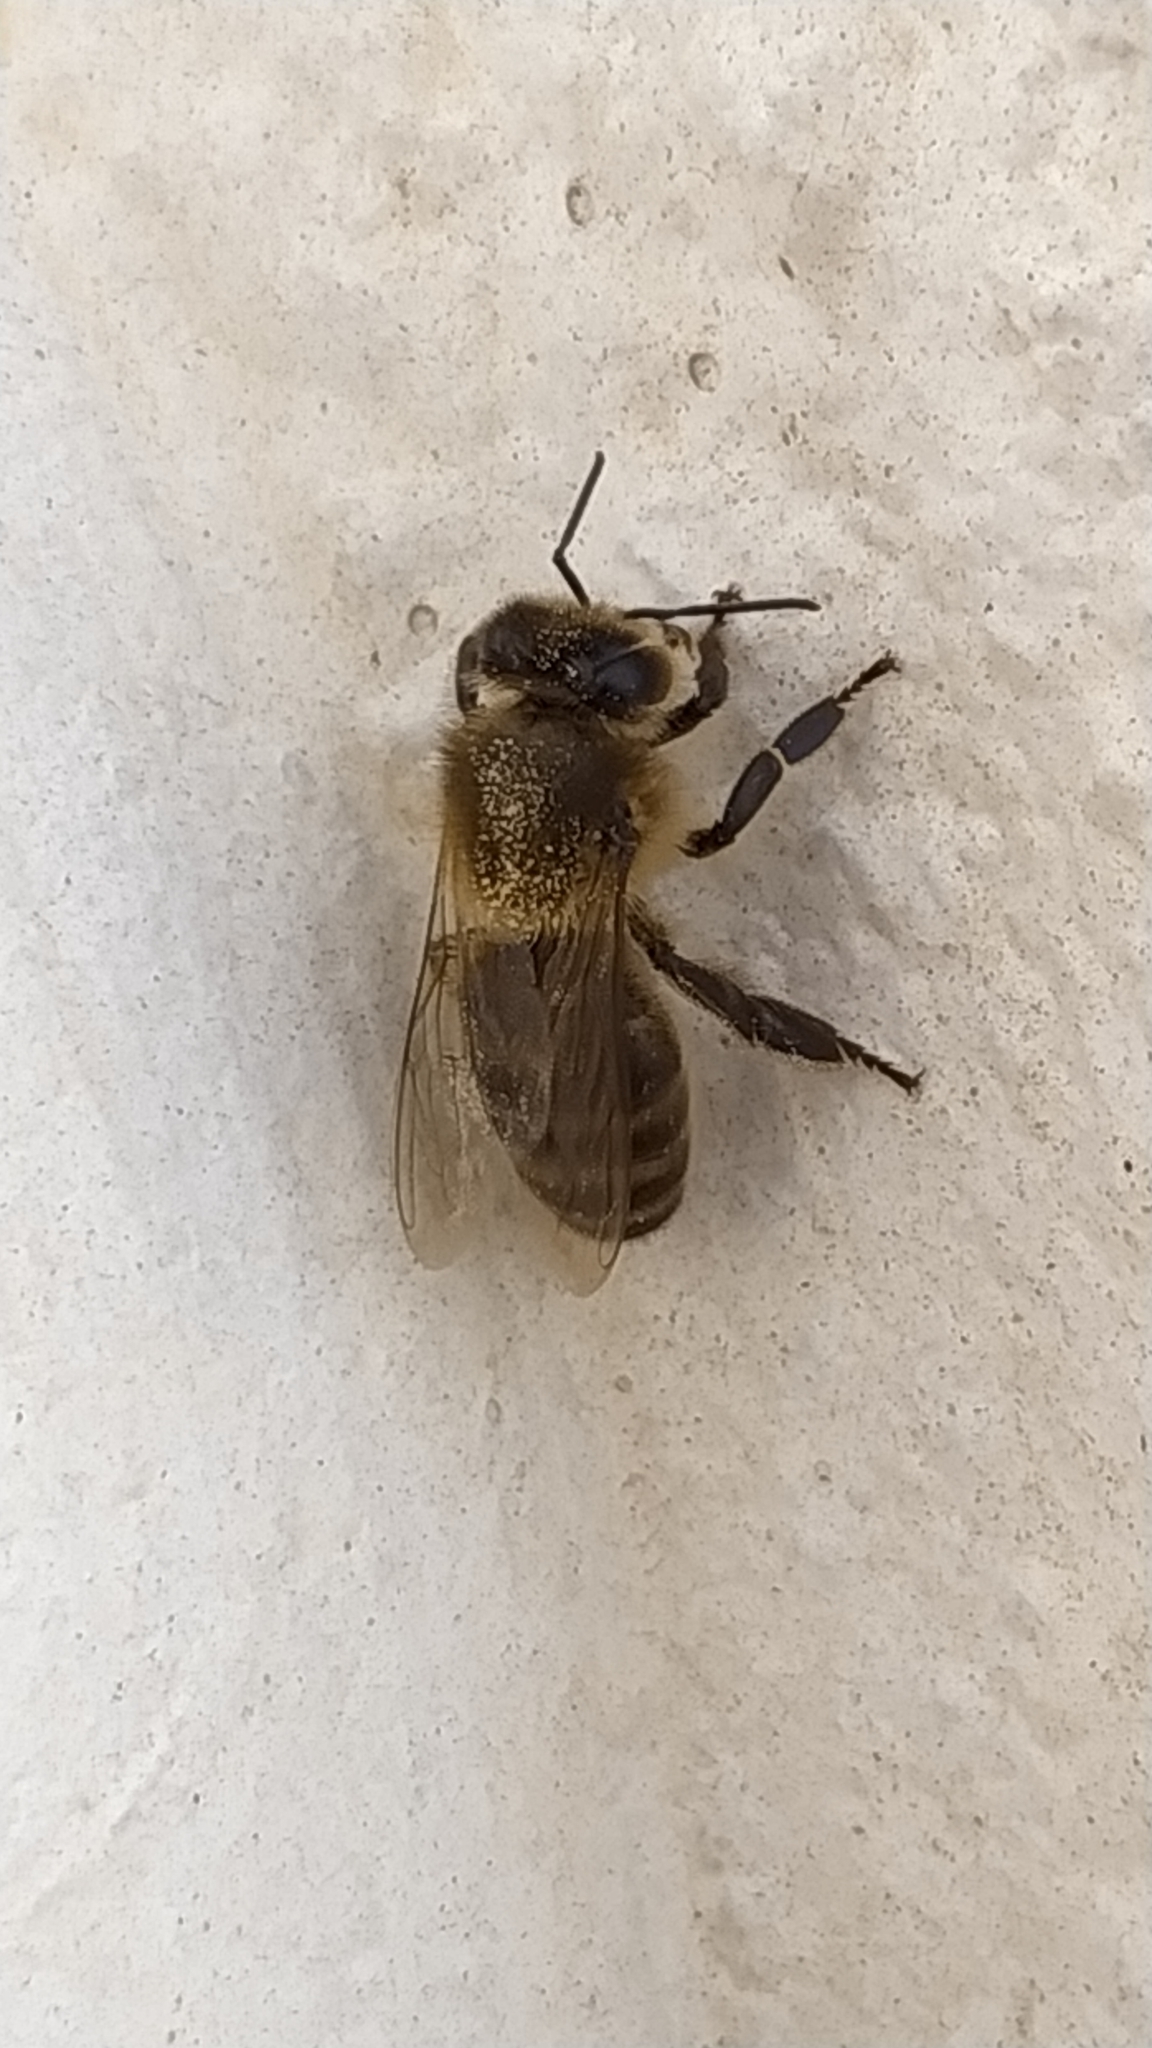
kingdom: Animalia
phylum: Arthropoda
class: Insecta
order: Hymenoptera
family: Apidae
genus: Apis
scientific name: Apis mellifera
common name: Honey bee
